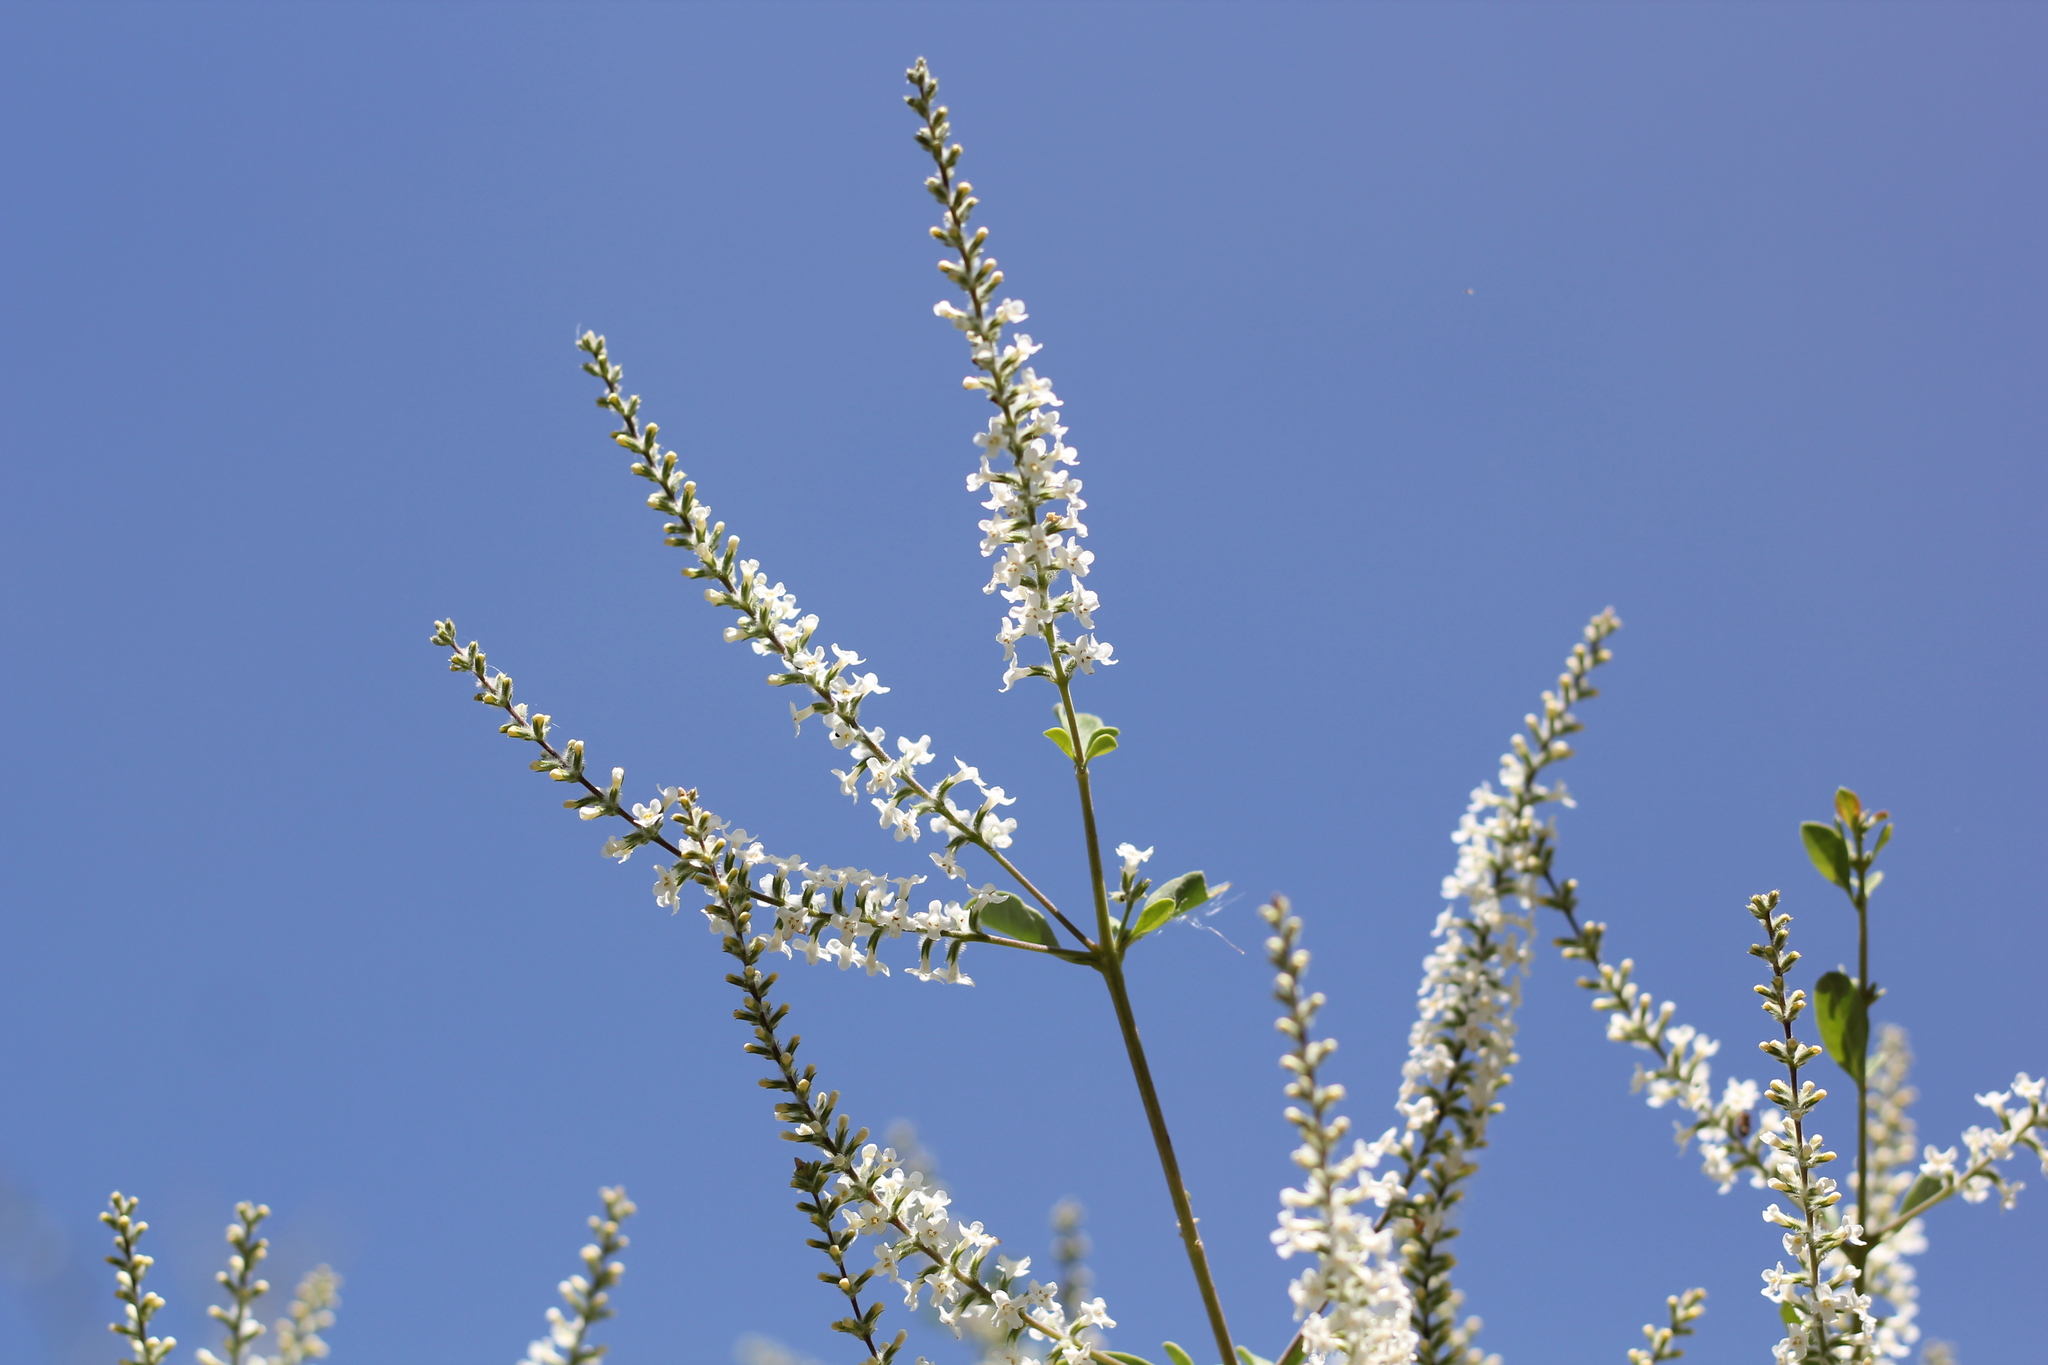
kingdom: Plantae
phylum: Tracheophyta
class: Magnoliopsida
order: Lamiales
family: Verbenaceae
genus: Aloysia
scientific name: Aloysia gratissima
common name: Common bee-brush
